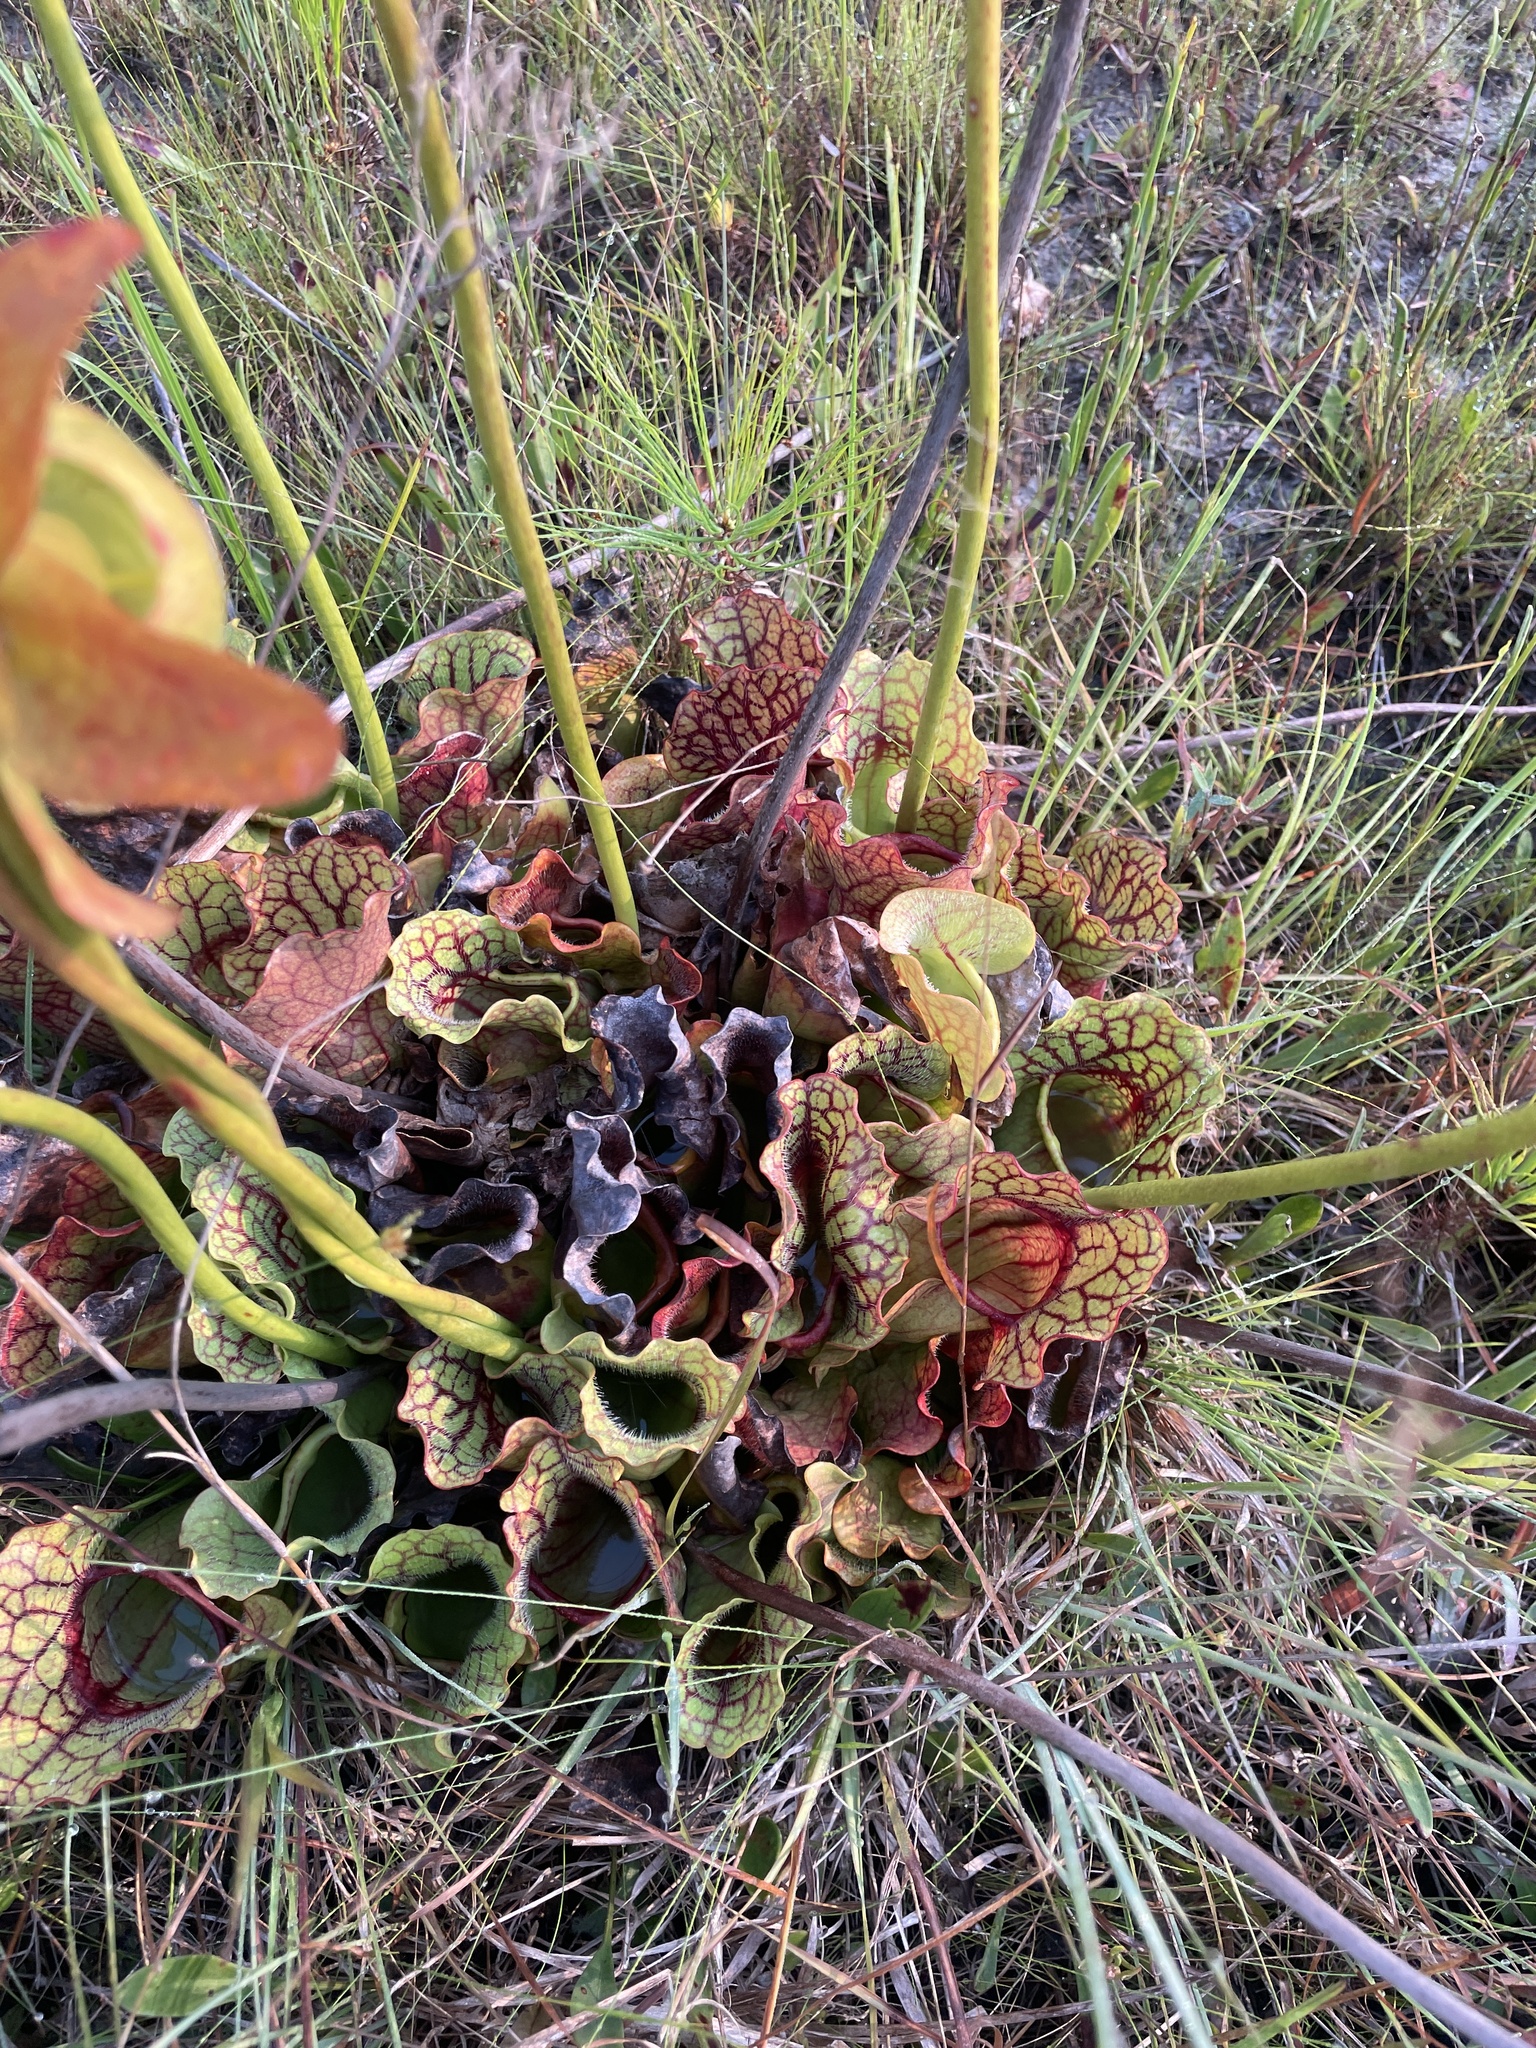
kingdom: Plantae
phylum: Tracheophyta
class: Magnoliopsida
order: Ericales
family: Sarraceniaceae
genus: Sarracenia
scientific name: Sarracenia purpurea
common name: Pitcherplant
